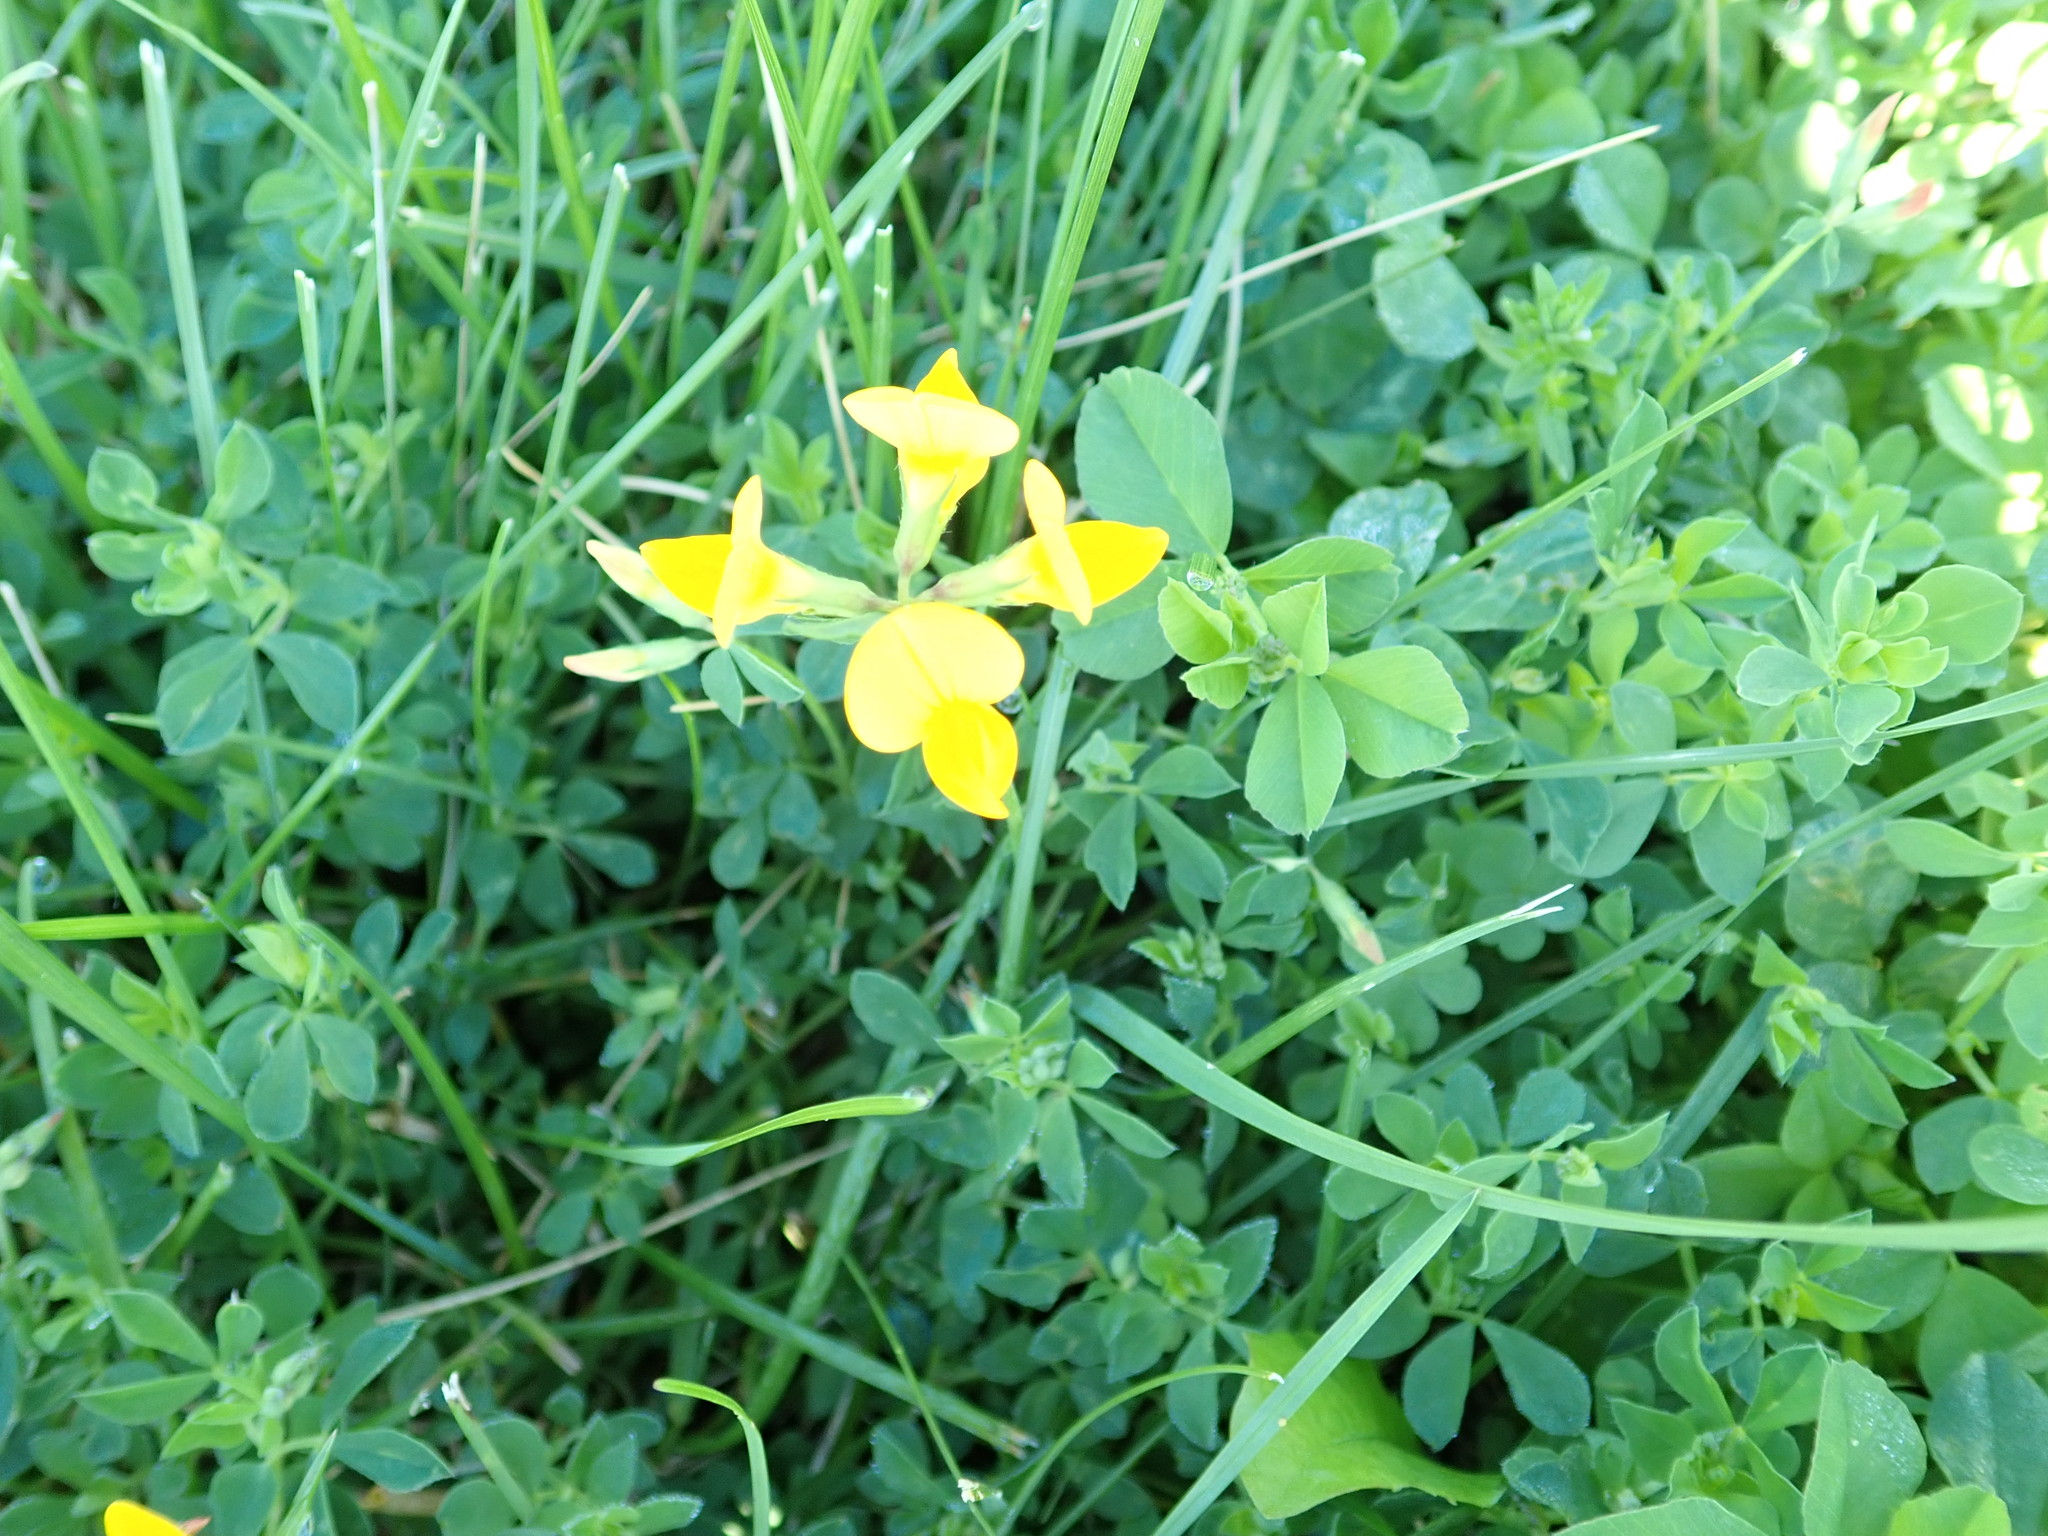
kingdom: Plantae
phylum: Tracheophyta
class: Magnoliopsida
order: Fabales
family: Fabaceae
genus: Lotus
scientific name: Lotus corniculatus
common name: Common bird's-foot-trefoil
